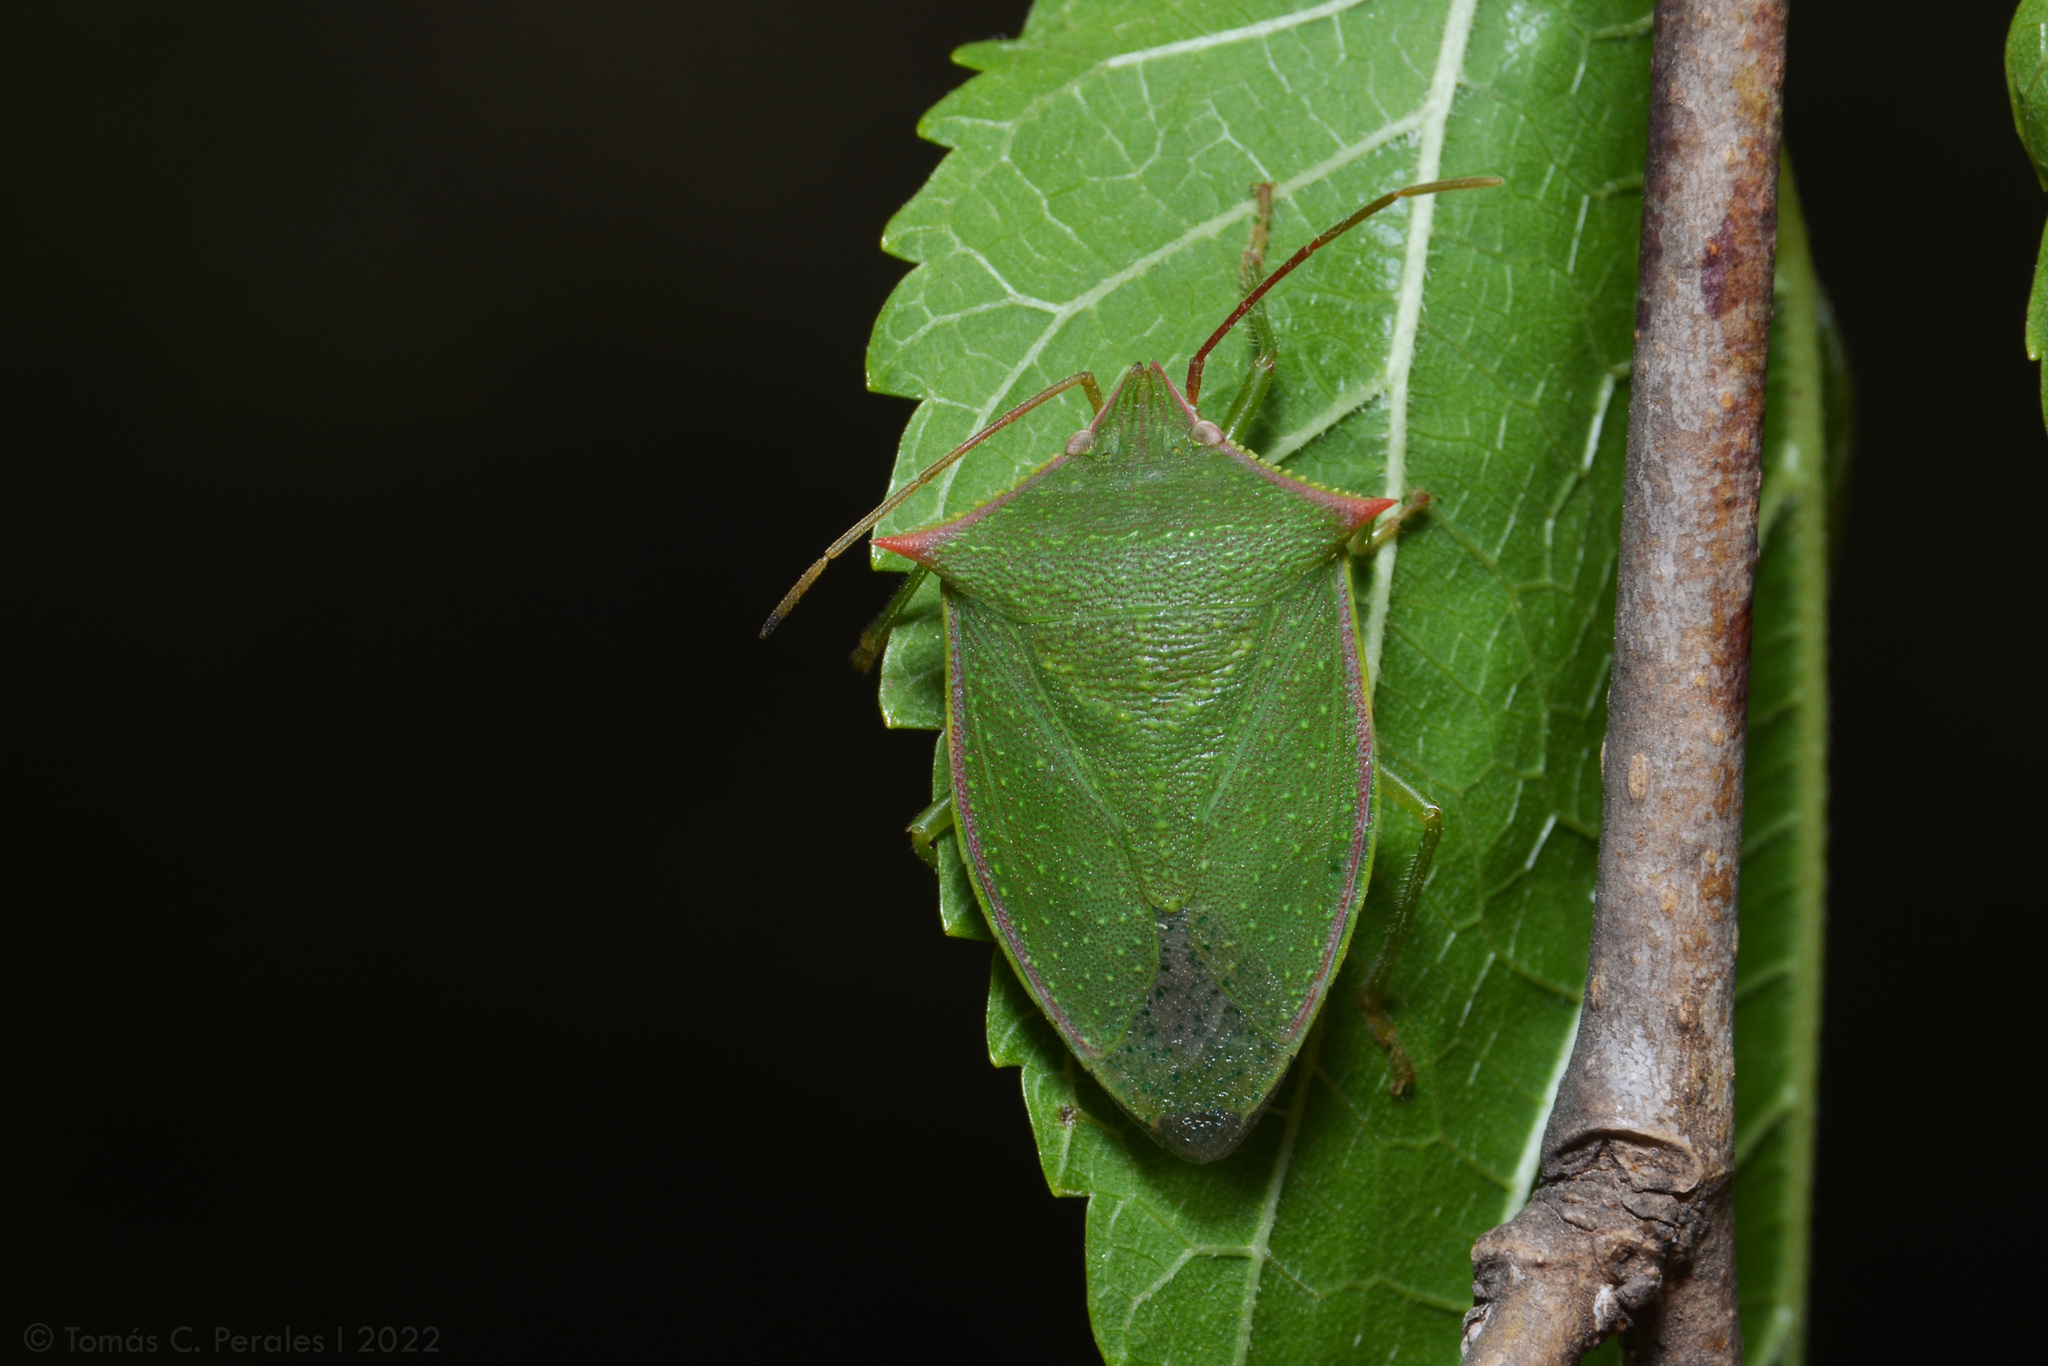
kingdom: Animalia
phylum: Arthropoda
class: Insecta
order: Hemiptera
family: Pentatomidae
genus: Loxa
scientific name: Loxa deducta
